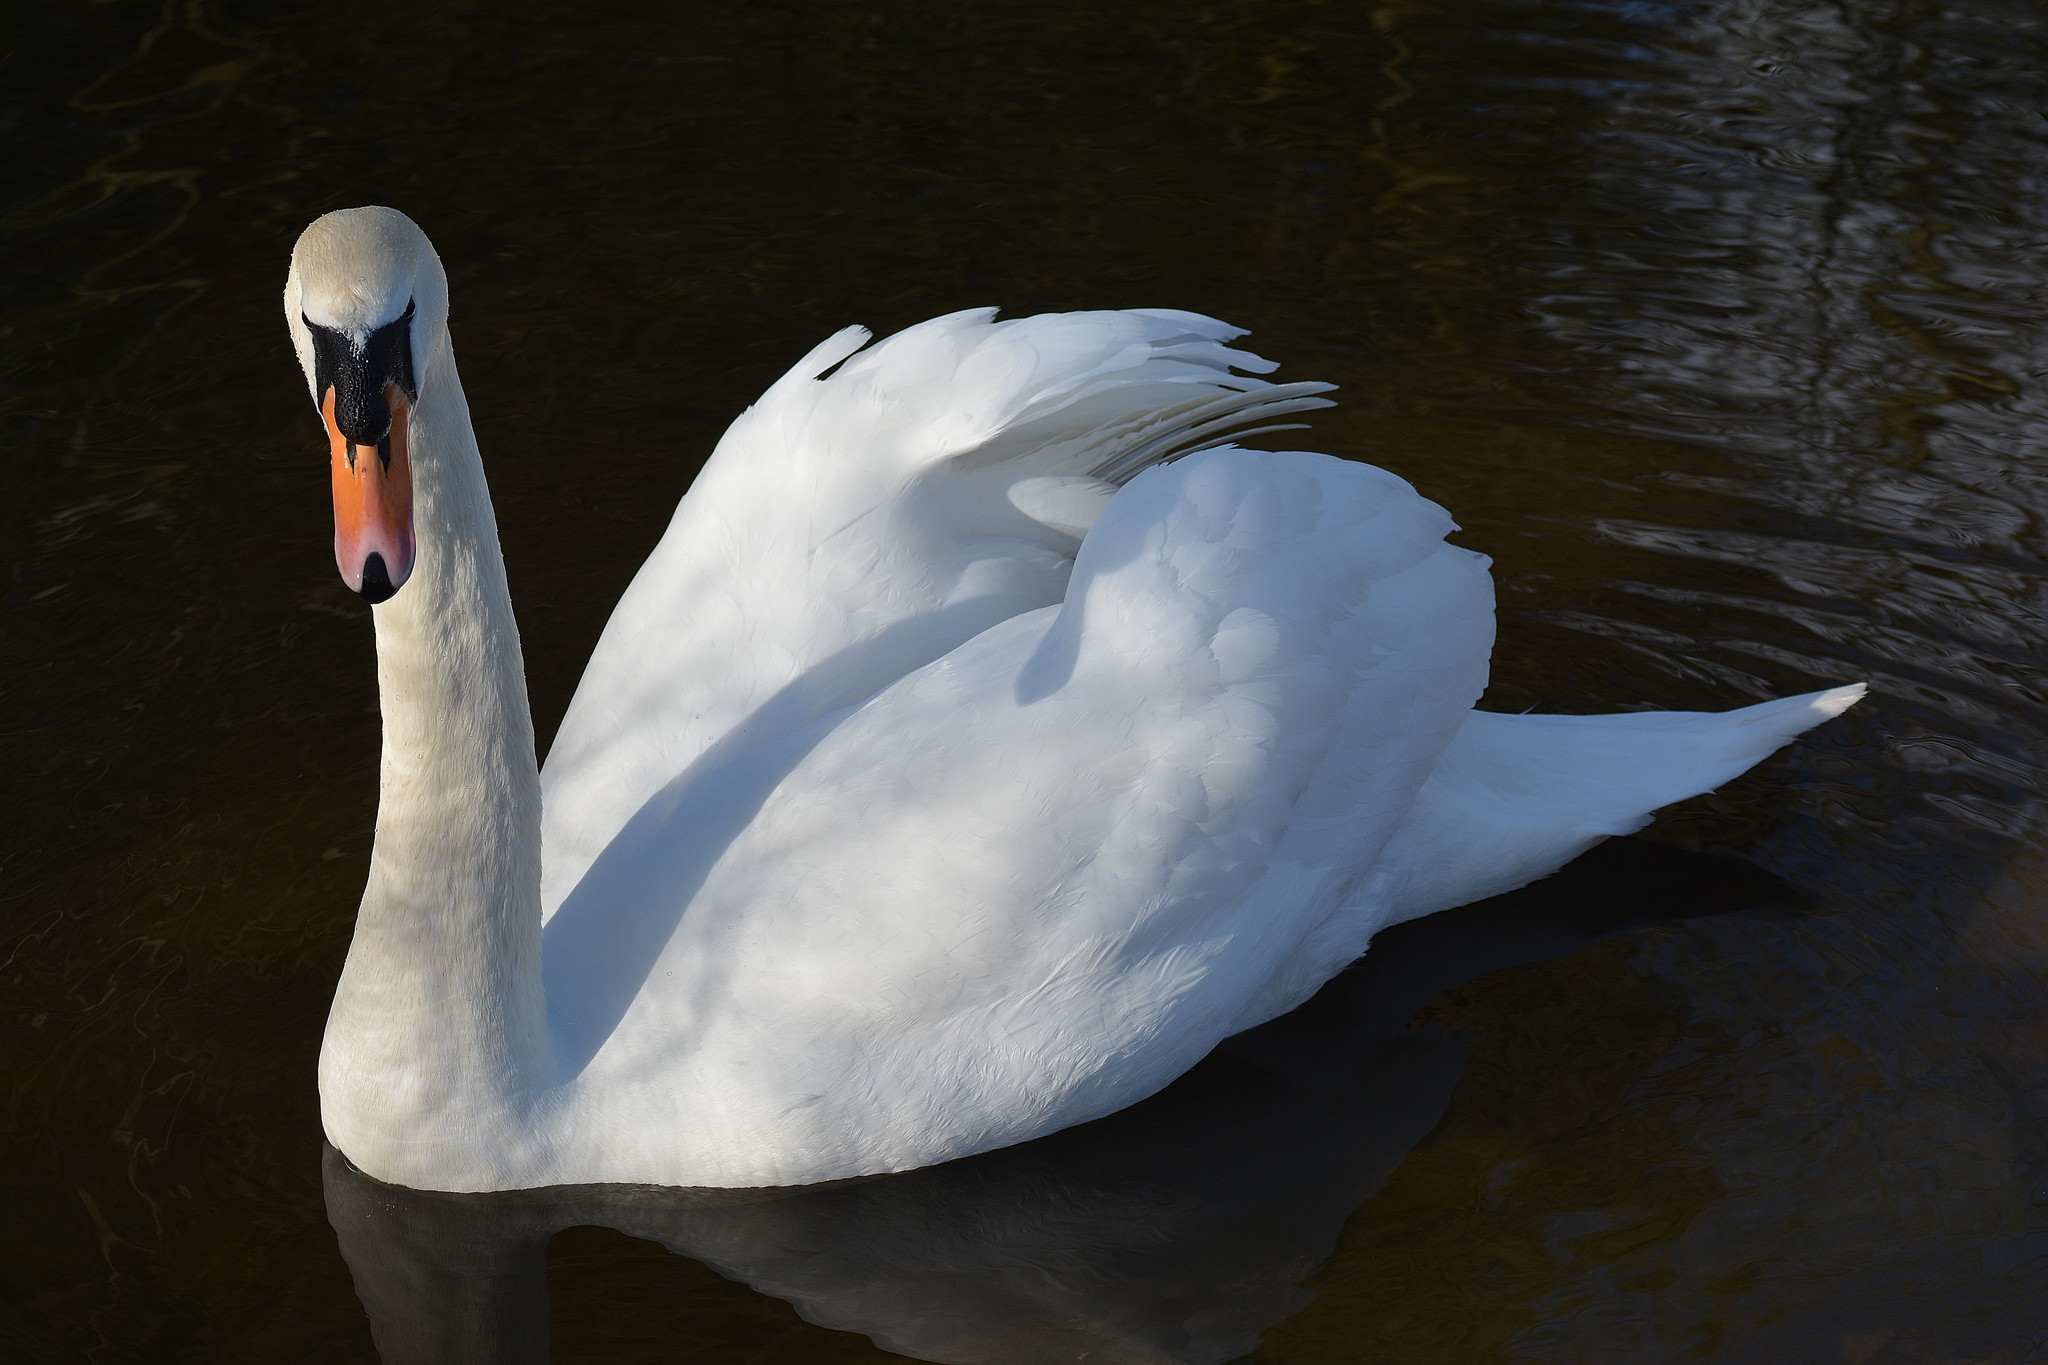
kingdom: Animalia
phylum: Chordata
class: Aves
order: Anseriformes
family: Anatidae
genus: Cygnus
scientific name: Cygnus olor
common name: Mute swan
